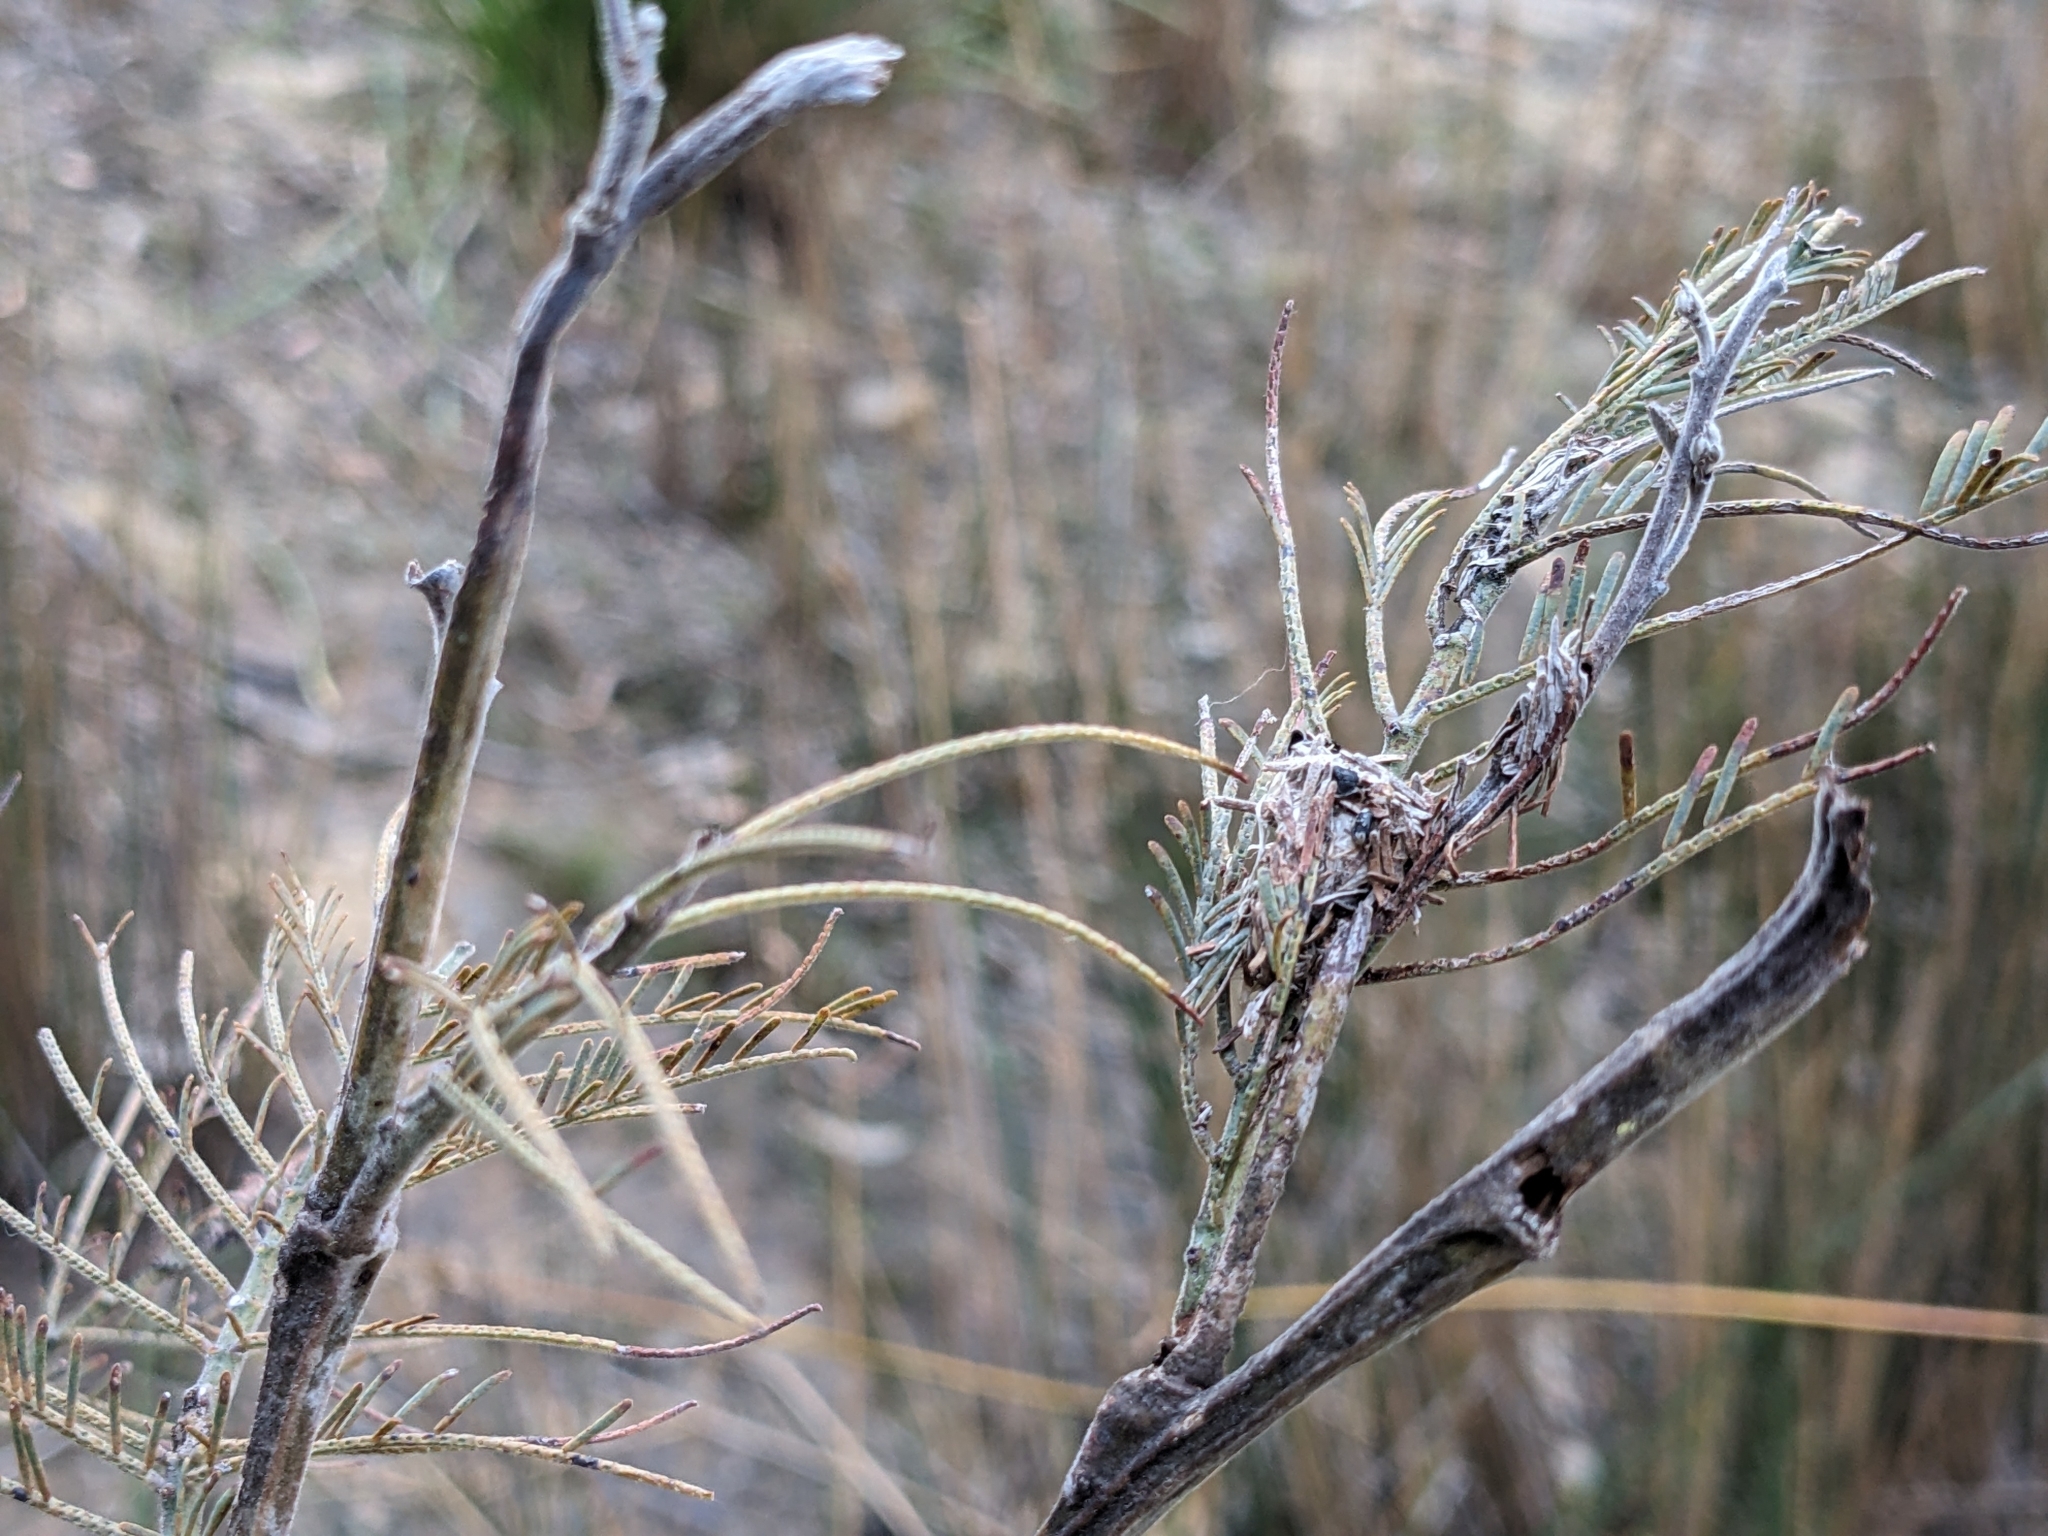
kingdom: Plantae
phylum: Tracheophyta
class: Magnoliopsida
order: Fabales
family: Fabaceae
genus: Acacia
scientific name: Acacia dealbata
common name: Silver wattle
